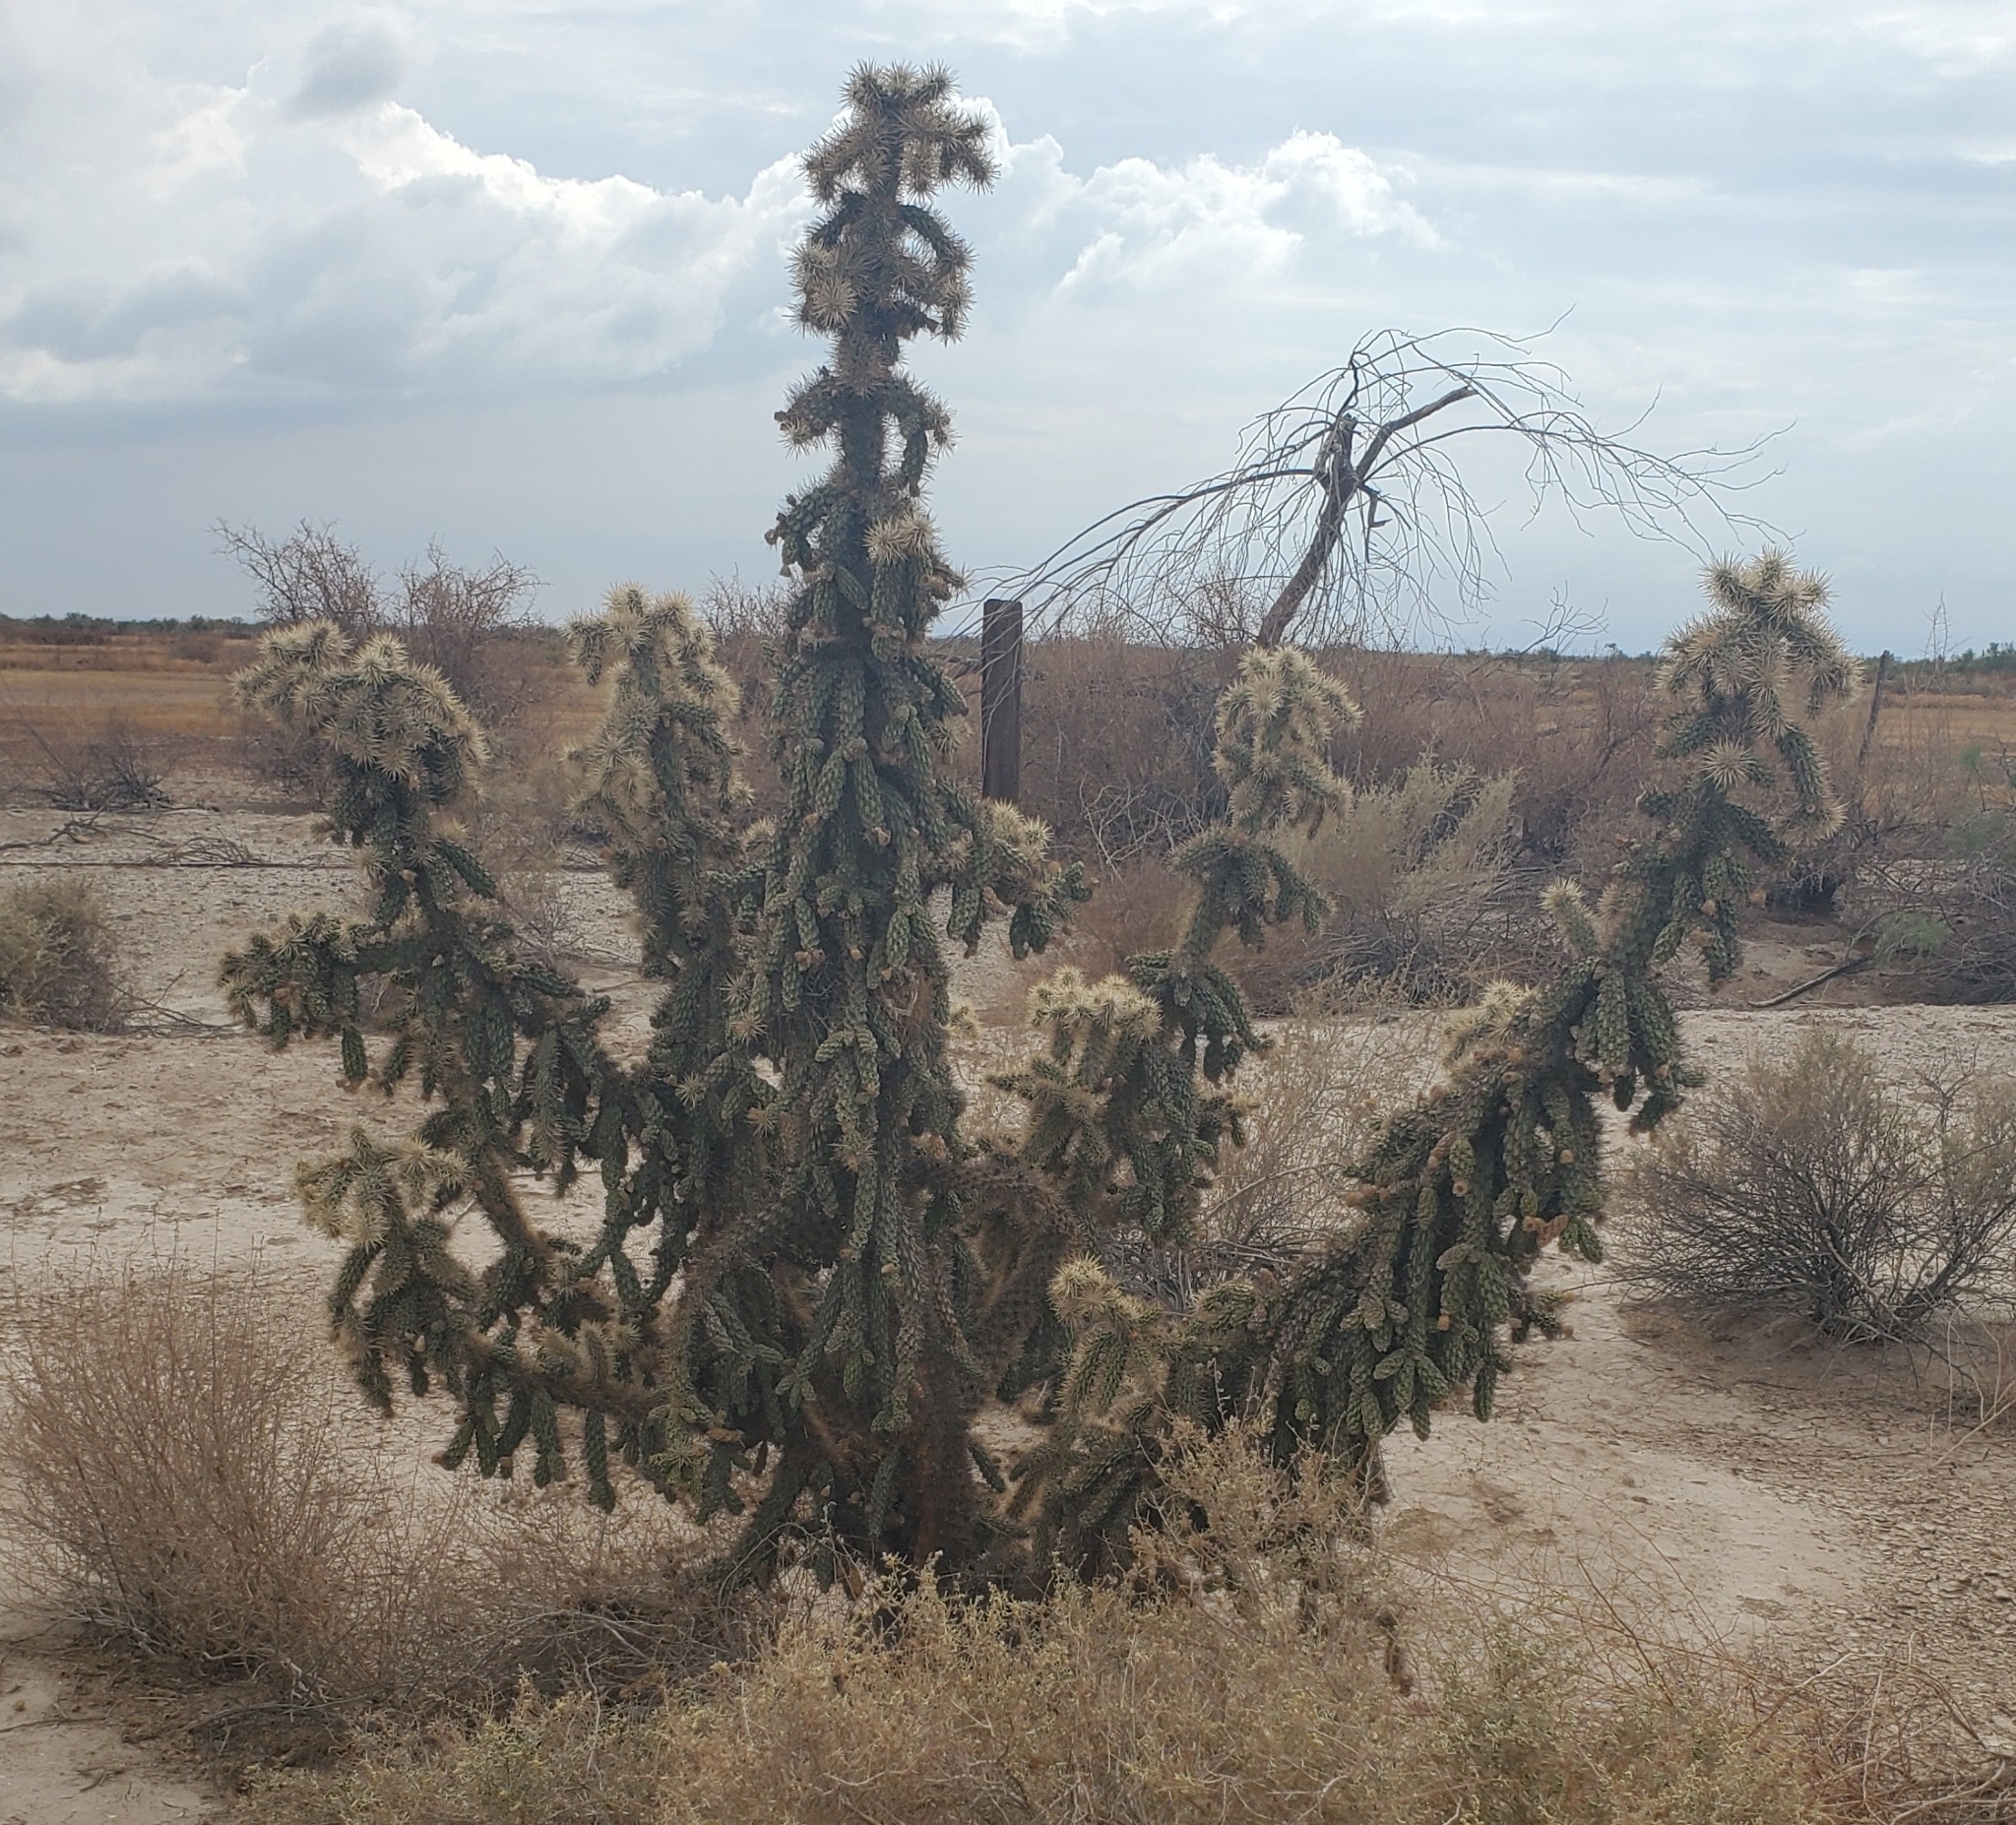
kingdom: Plantae
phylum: Tracheophyta
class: Magnoliopsida
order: Caryophyllales
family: Cactaceae
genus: Cylindropuntia
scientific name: Cylindropuntia munzii
